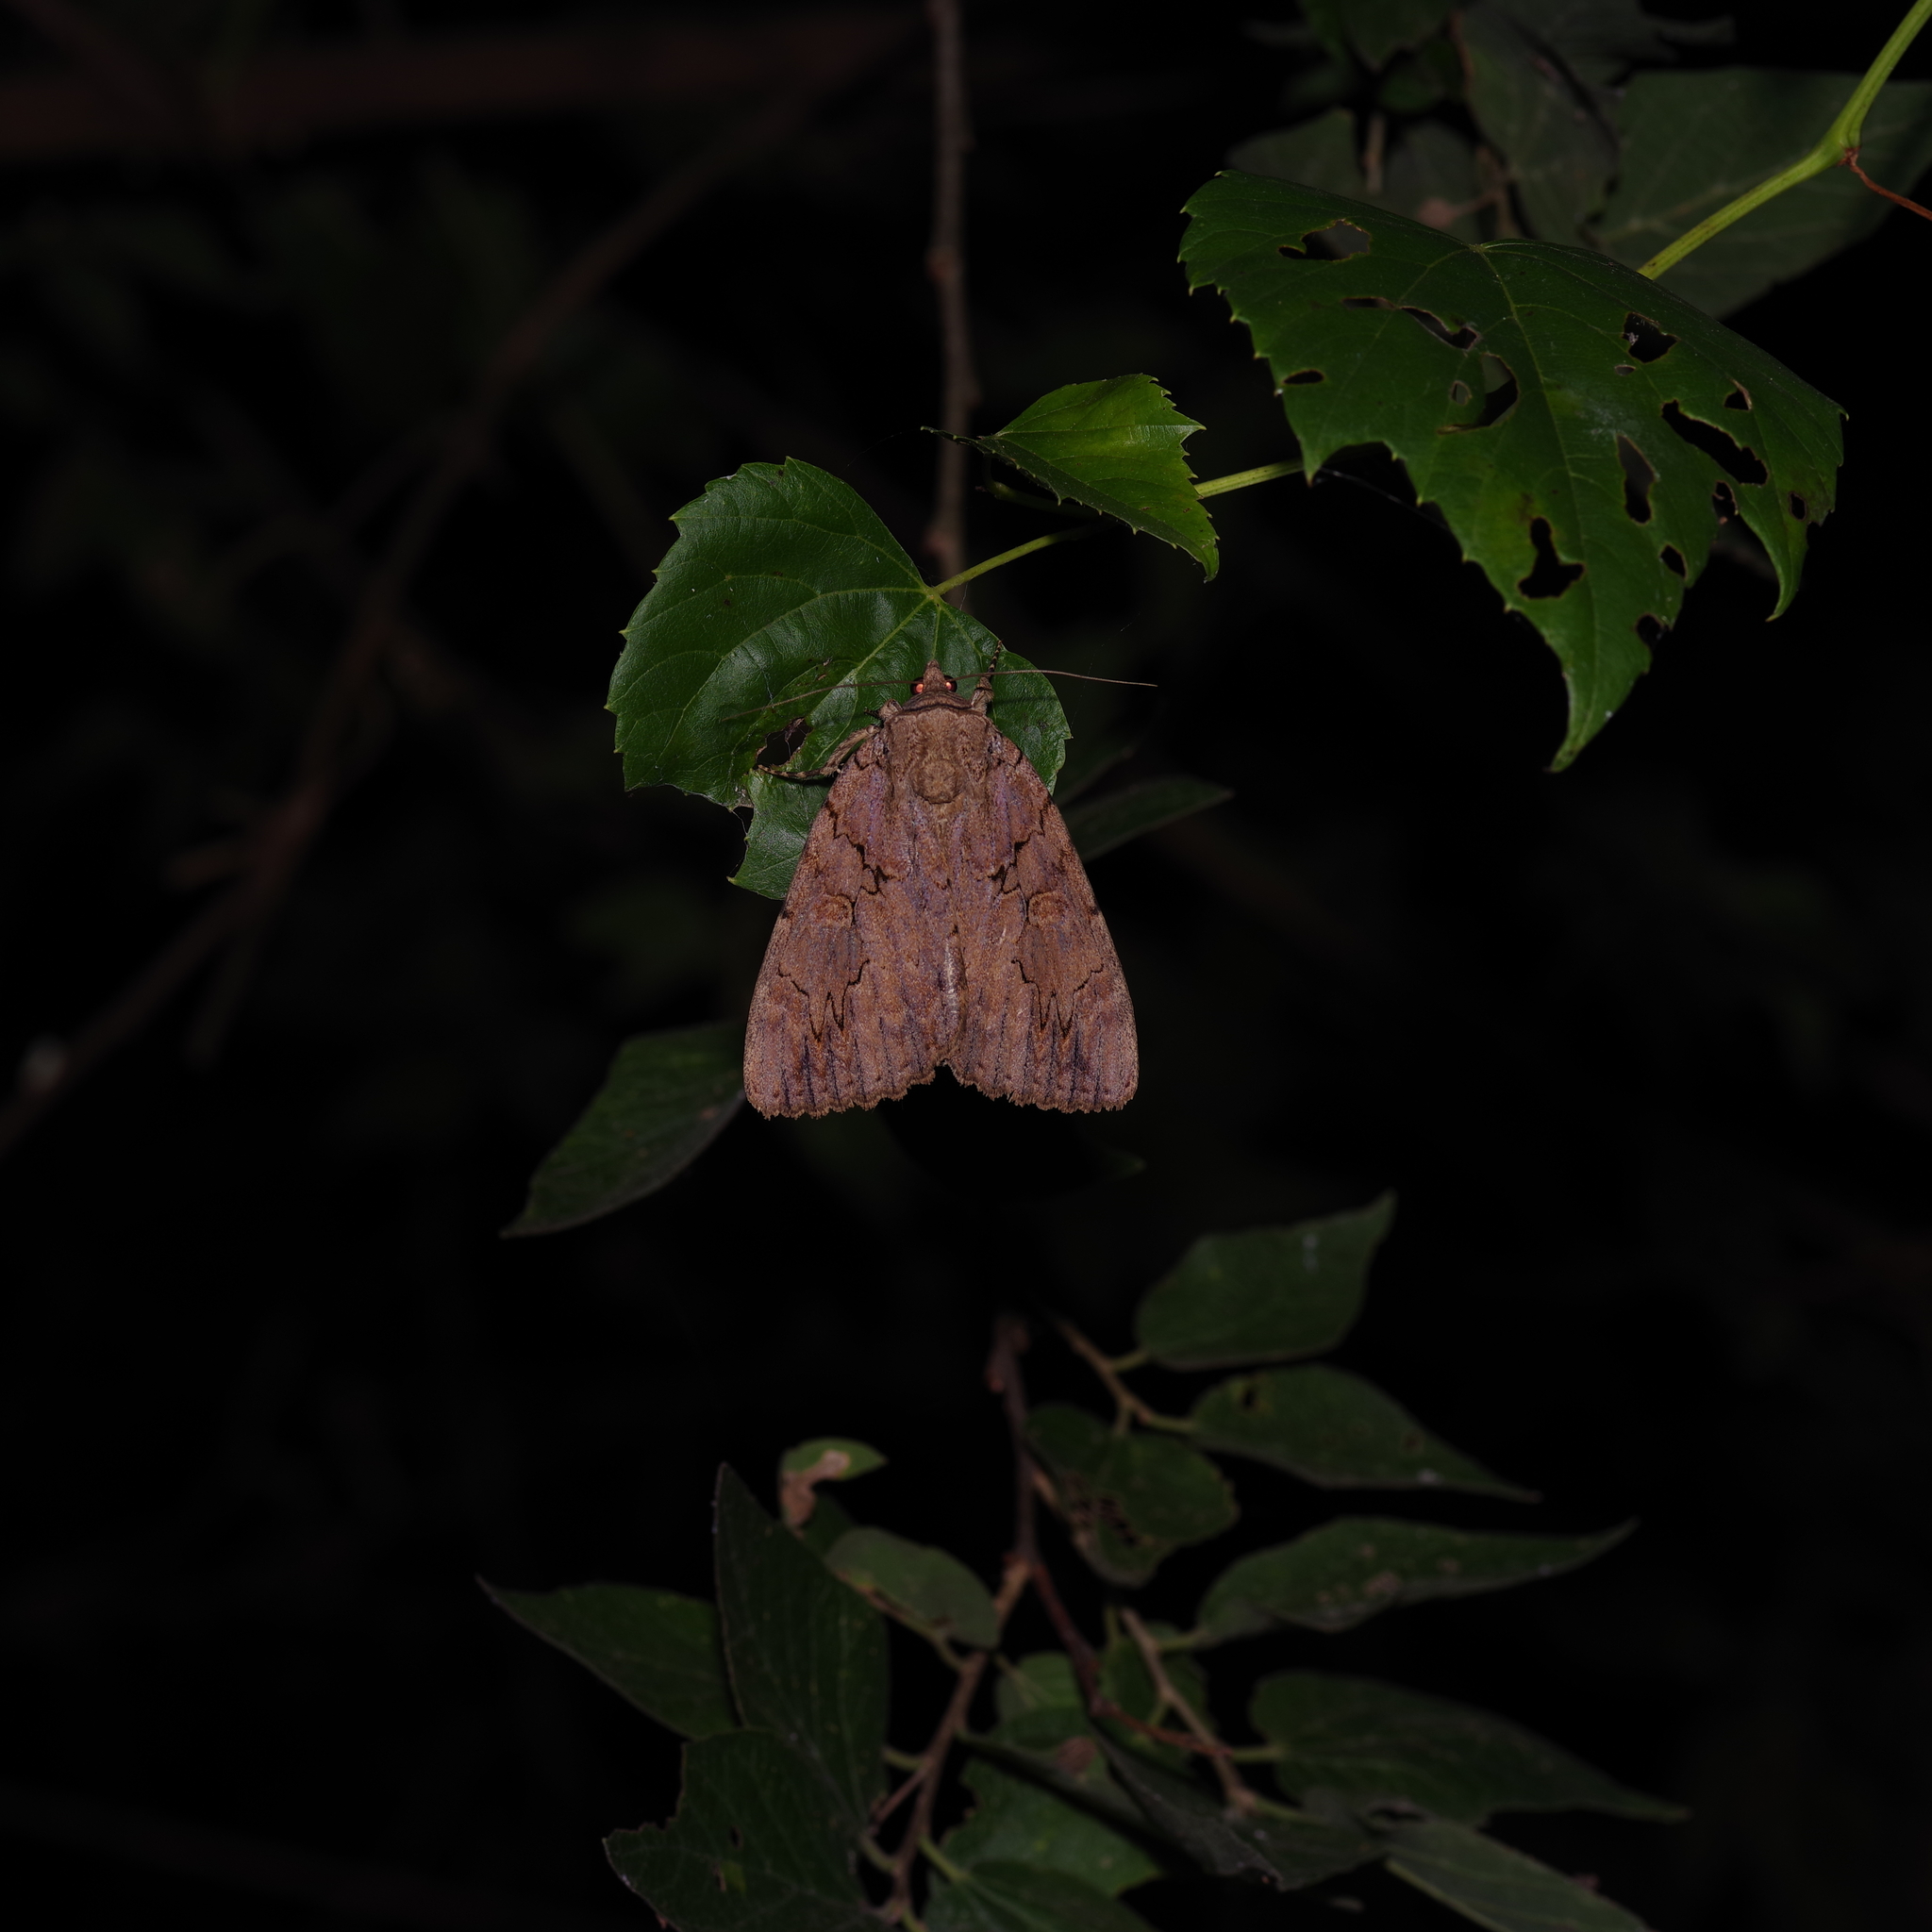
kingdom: Animalia
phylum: Arthropoda
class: Insecta
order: Lepidoptera
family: Erebidae
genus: Catocala
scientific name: Catocala amatrix
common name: Sweetheart underwing
